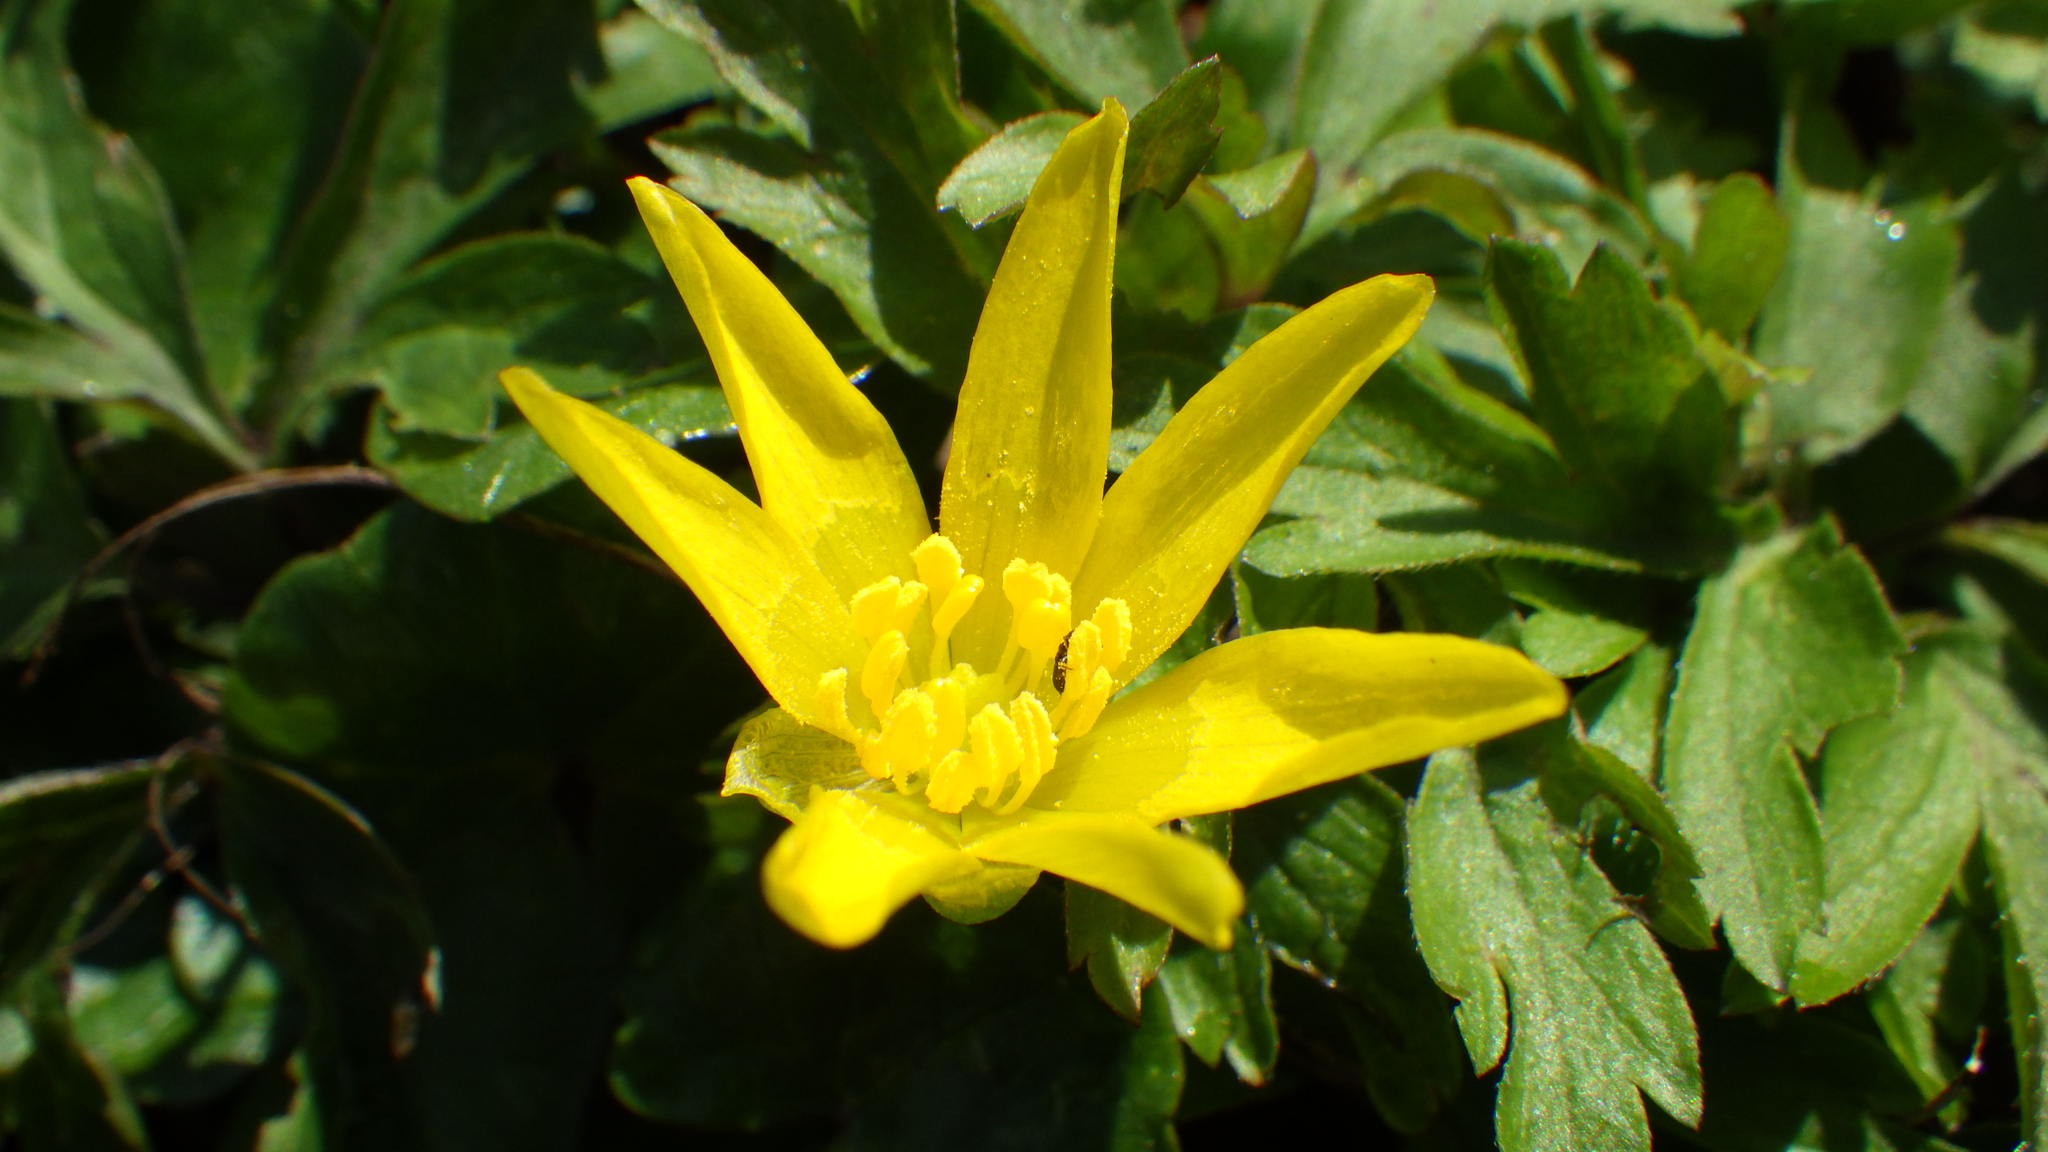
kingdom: Plantae
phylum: Tracheophyta
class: Magnoliopsida
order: Ranunculales
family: Ranunculaceae
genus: Ficaria
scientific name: Ficaria verna
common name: Lesser celandine
